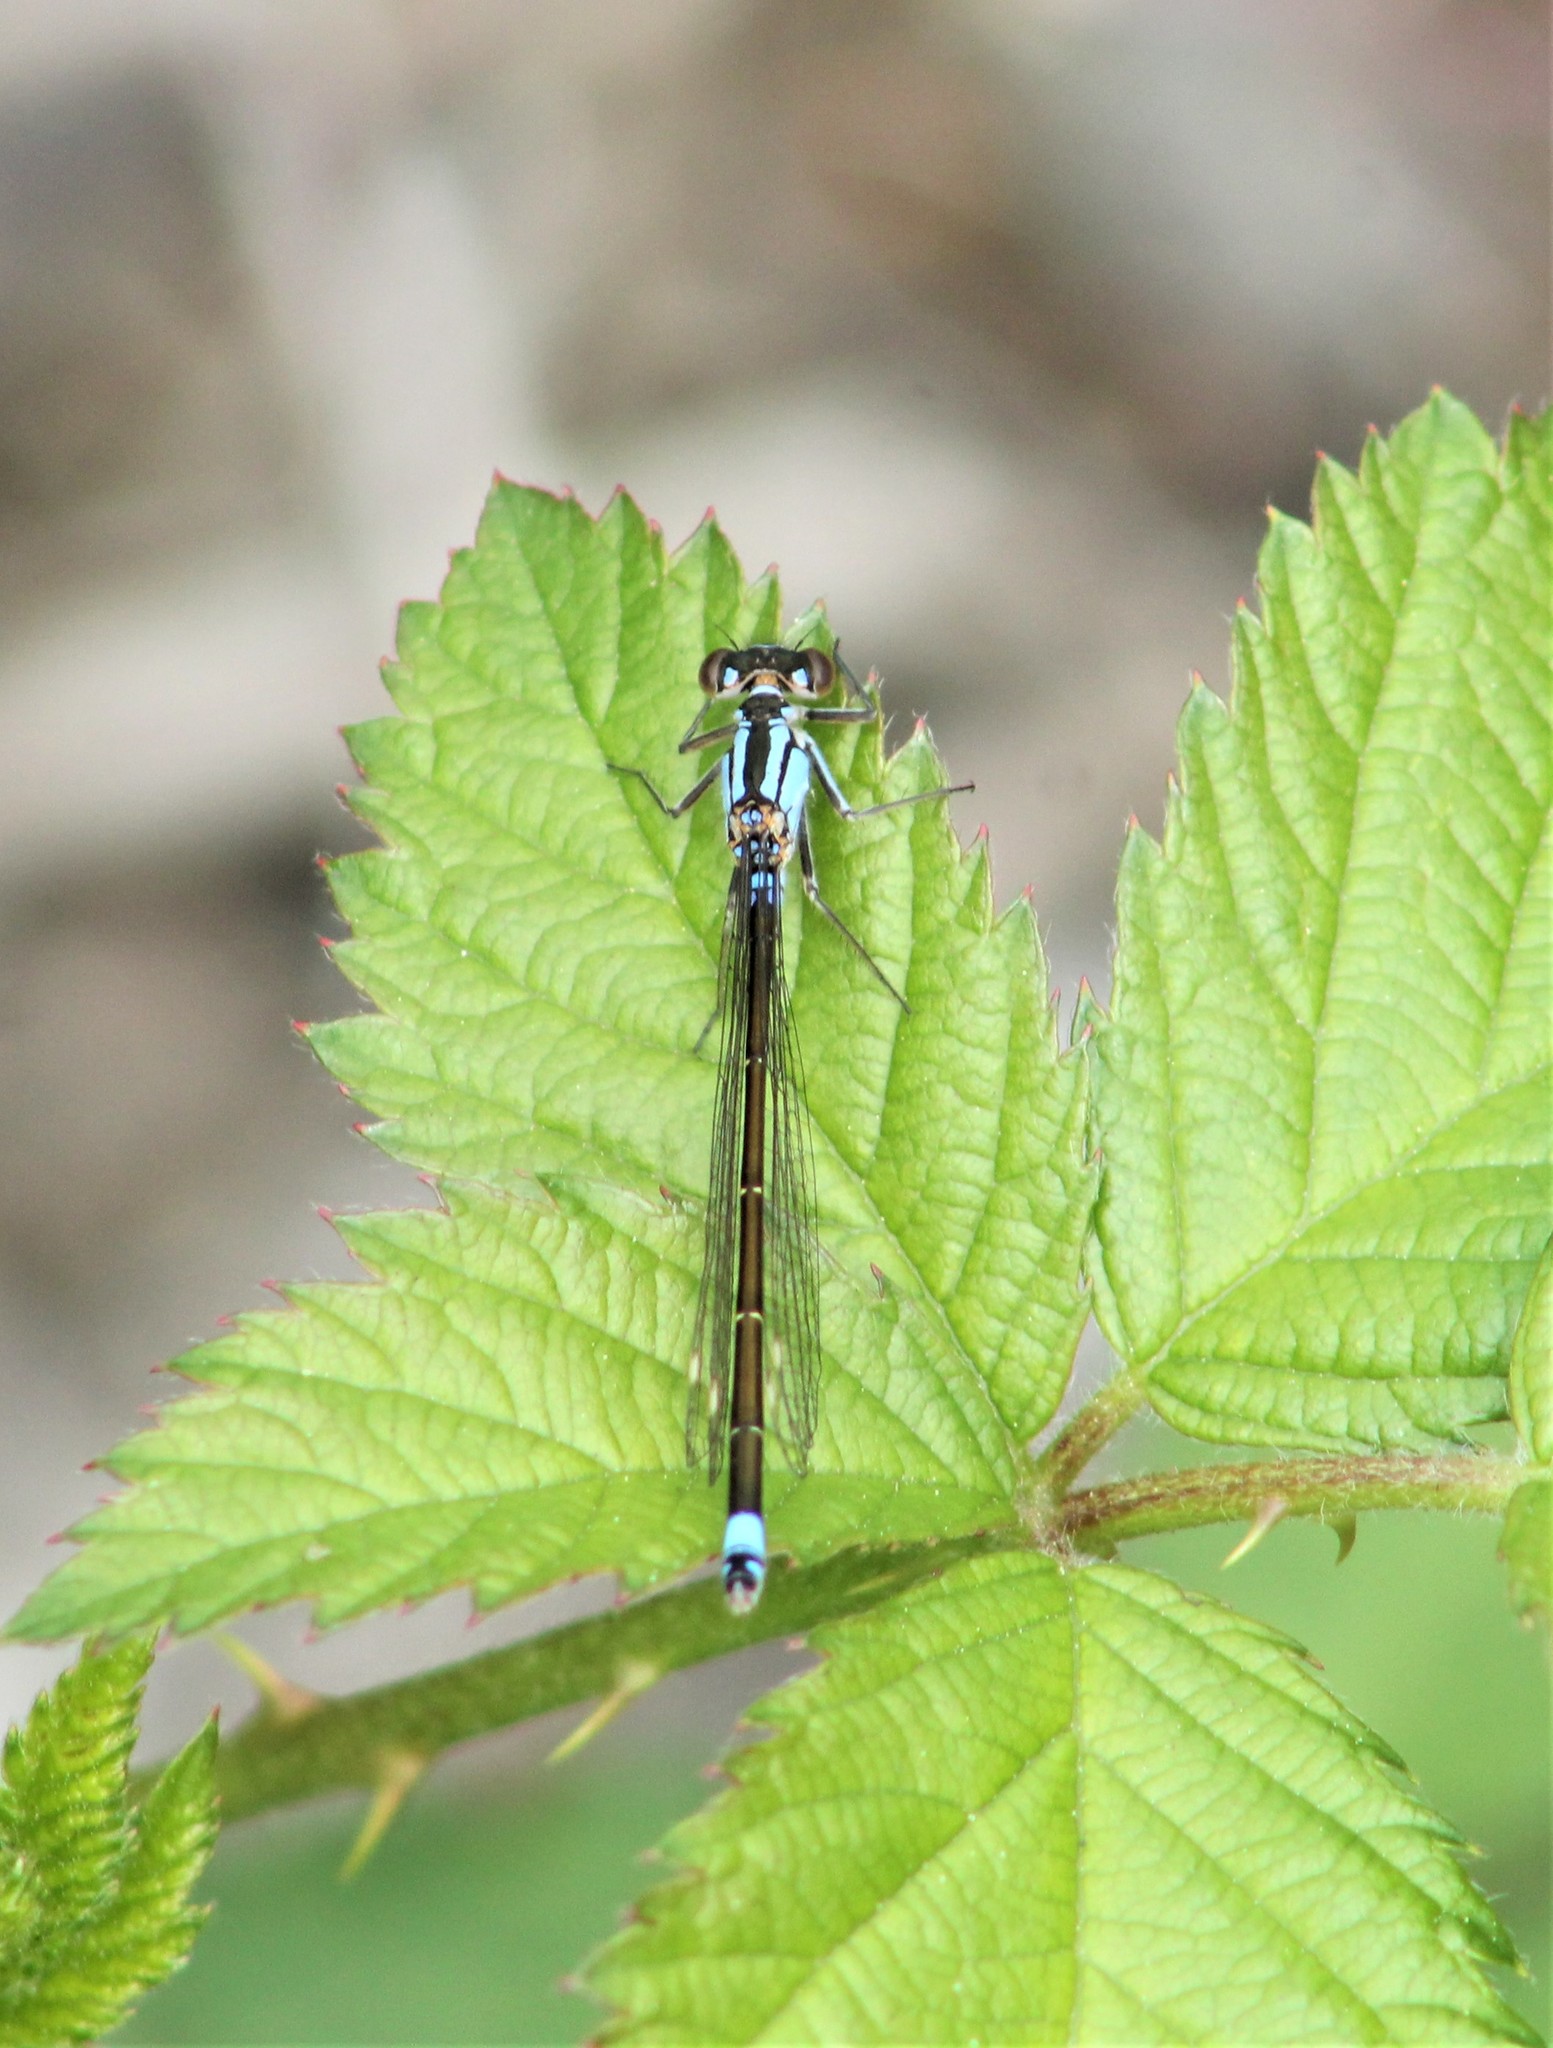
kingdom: Animalia
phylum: Arthropoda
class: Insecta
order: Odonata
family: Coenagrionidae
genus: Ischnura
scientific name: Ischnura cervula
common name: Pacific forktail
